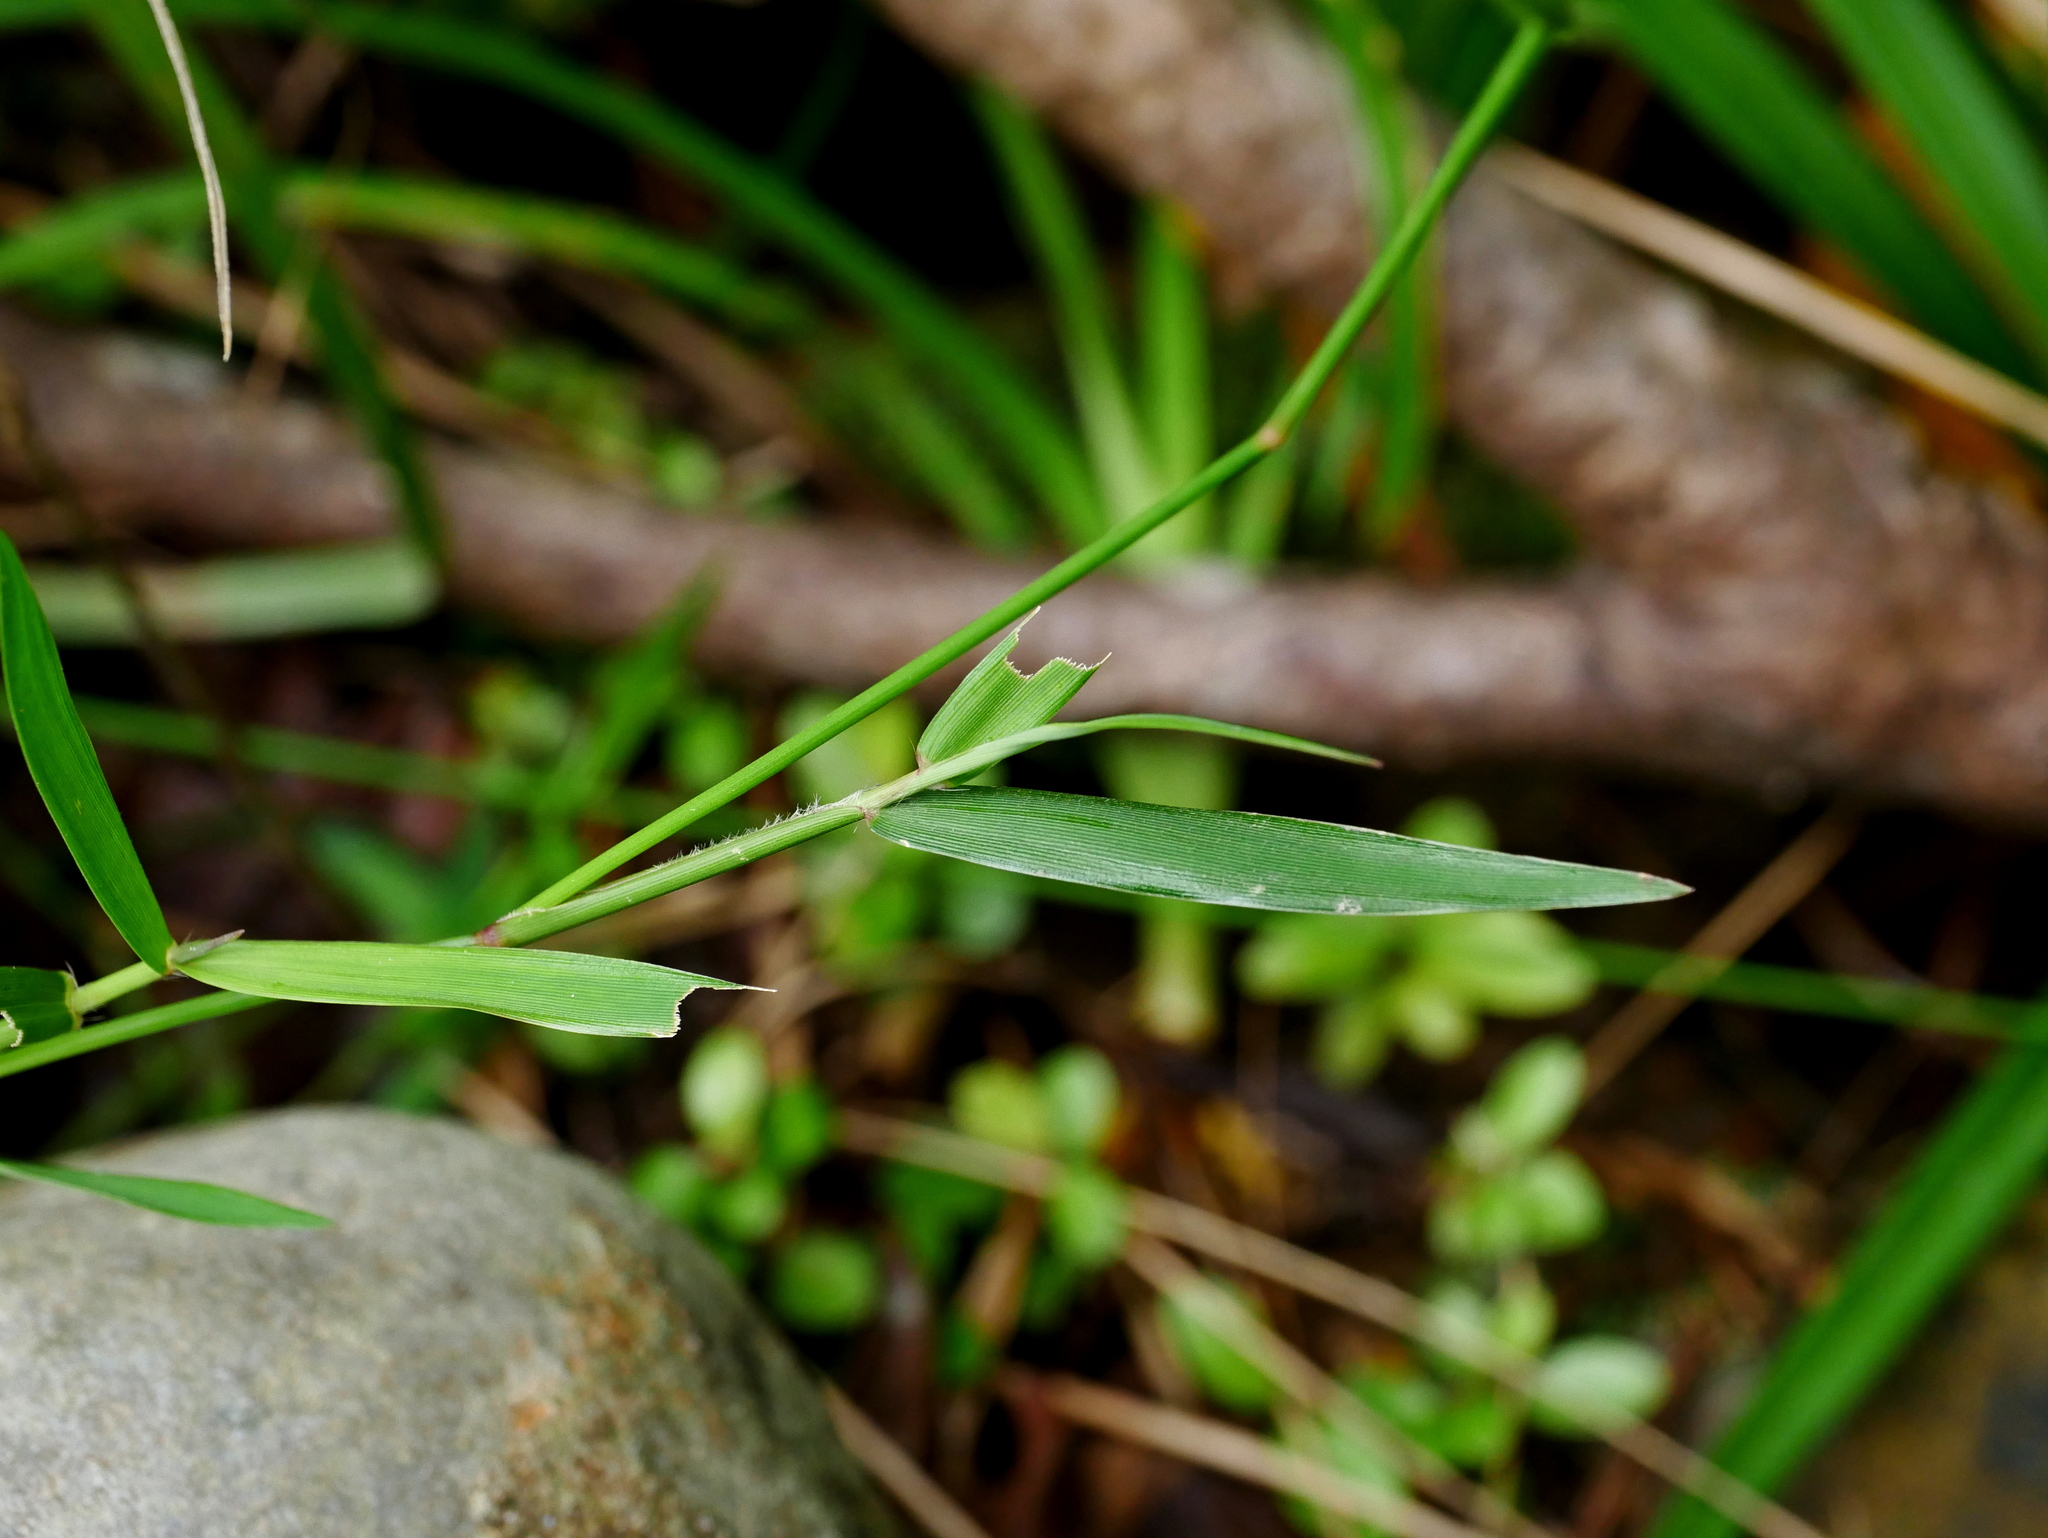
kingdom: Plantae
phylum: Tracheophyta
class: Liliopsida
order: Poales
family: Poaceae
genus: Isachne
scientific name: Isachne globosa
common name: Swamp millet
